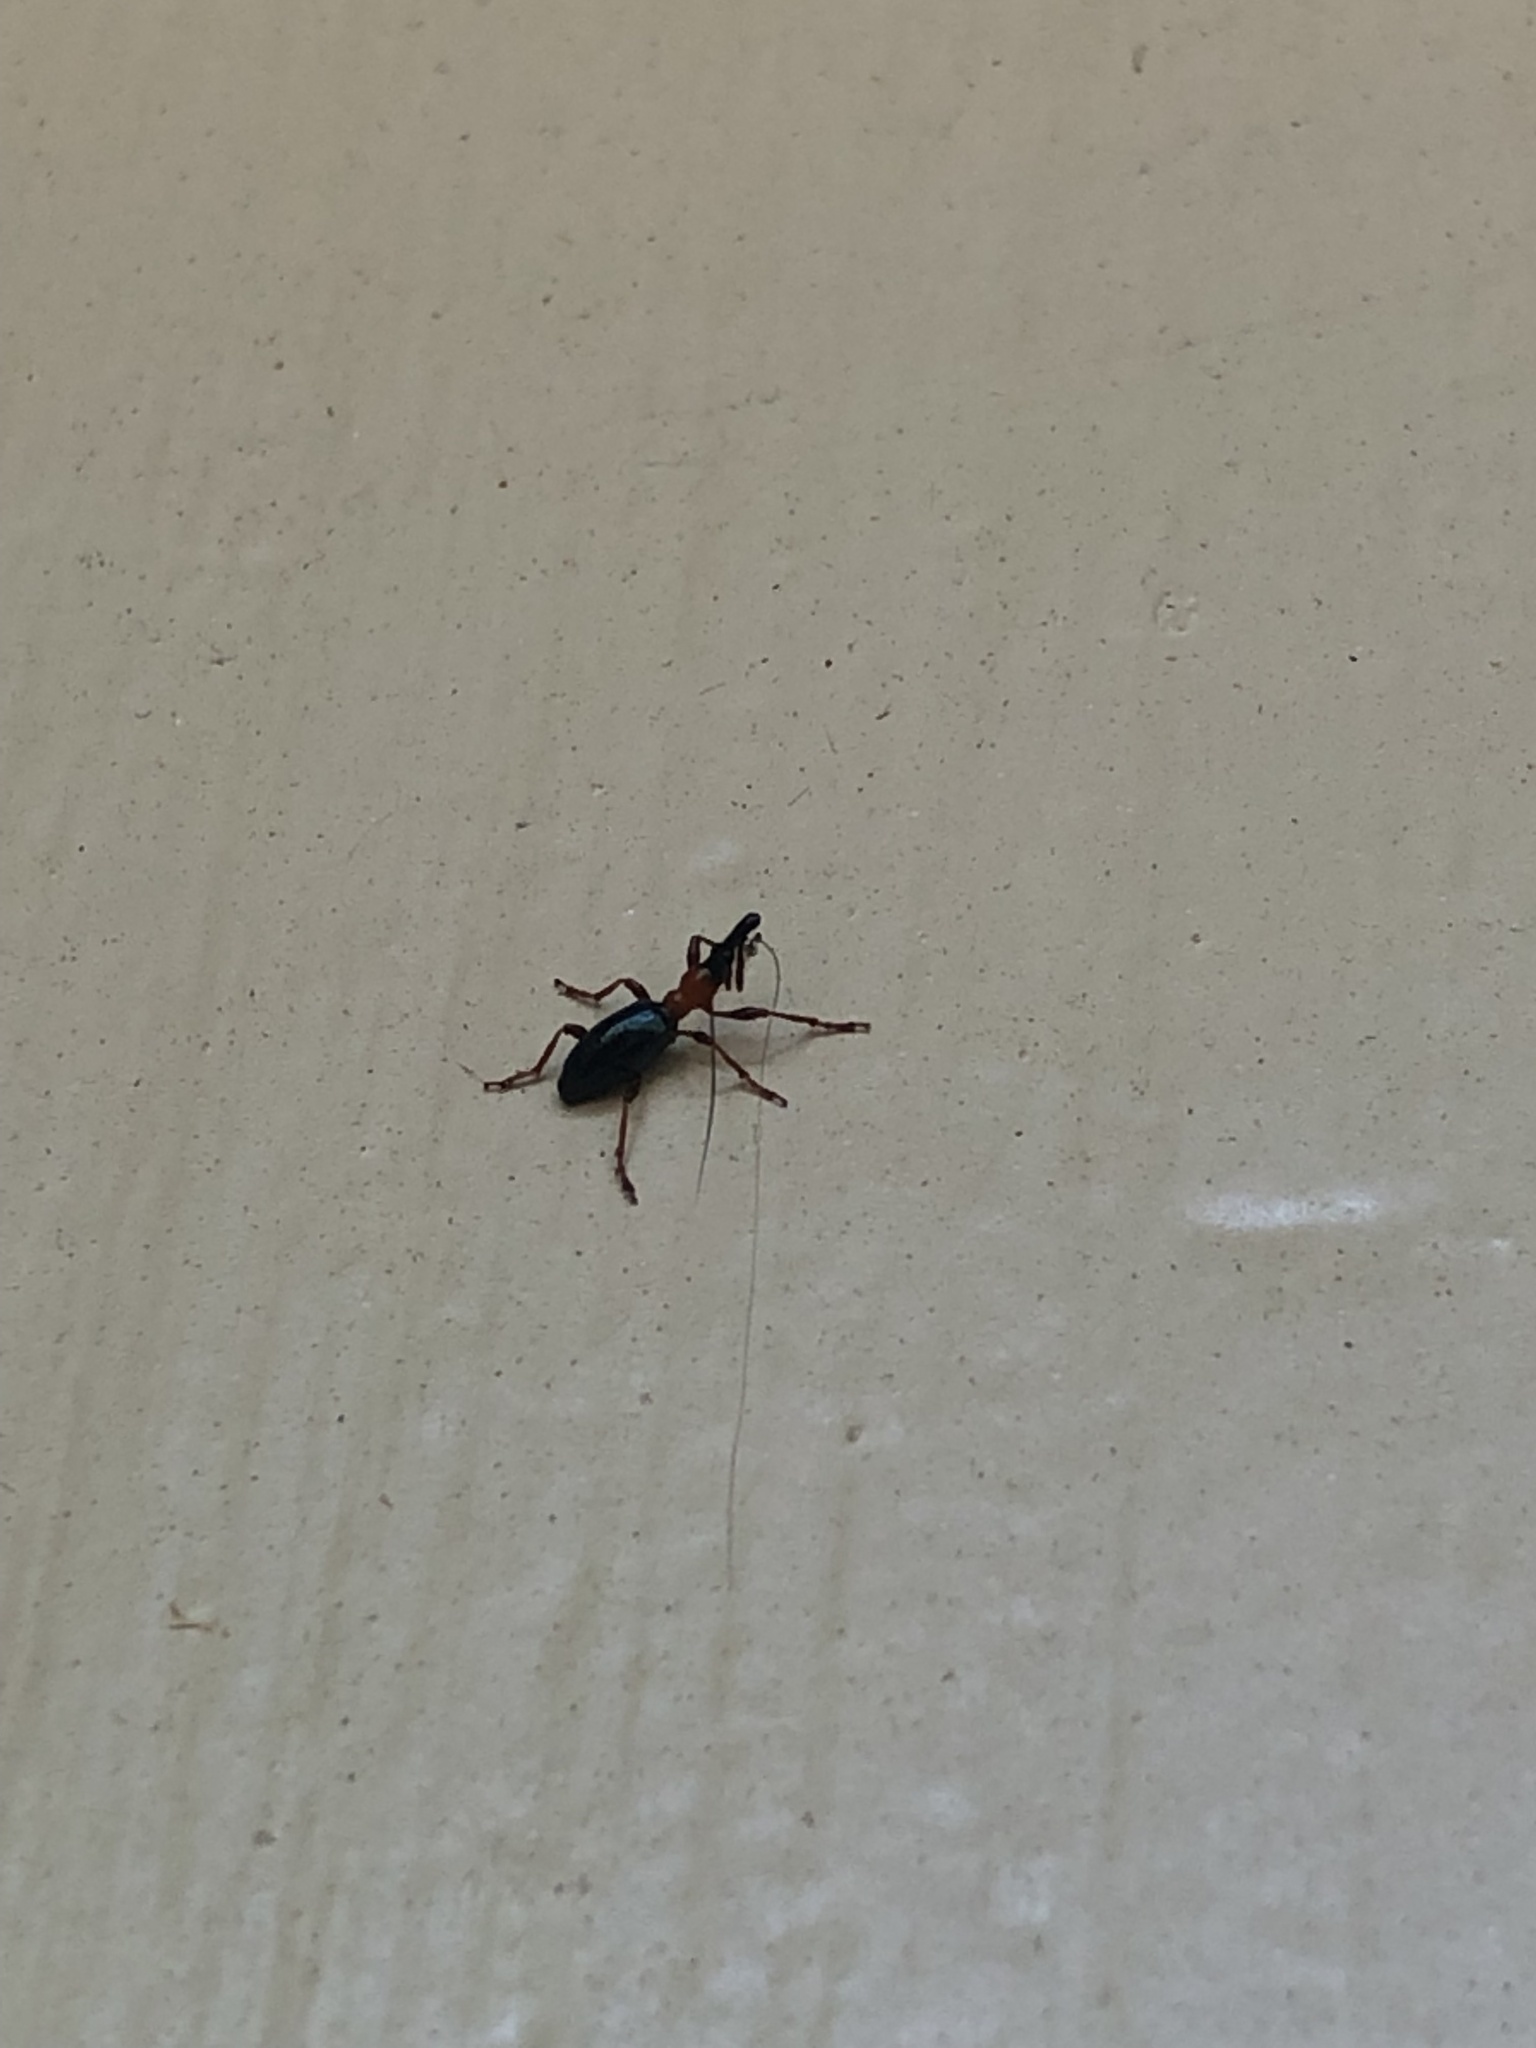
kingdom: Animalia
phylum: Arthropoda
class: Insecta
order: Coleoptera
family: Brentidae
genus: Cylas
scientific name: Cylas formicarius
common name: Sweetpotato weevil
